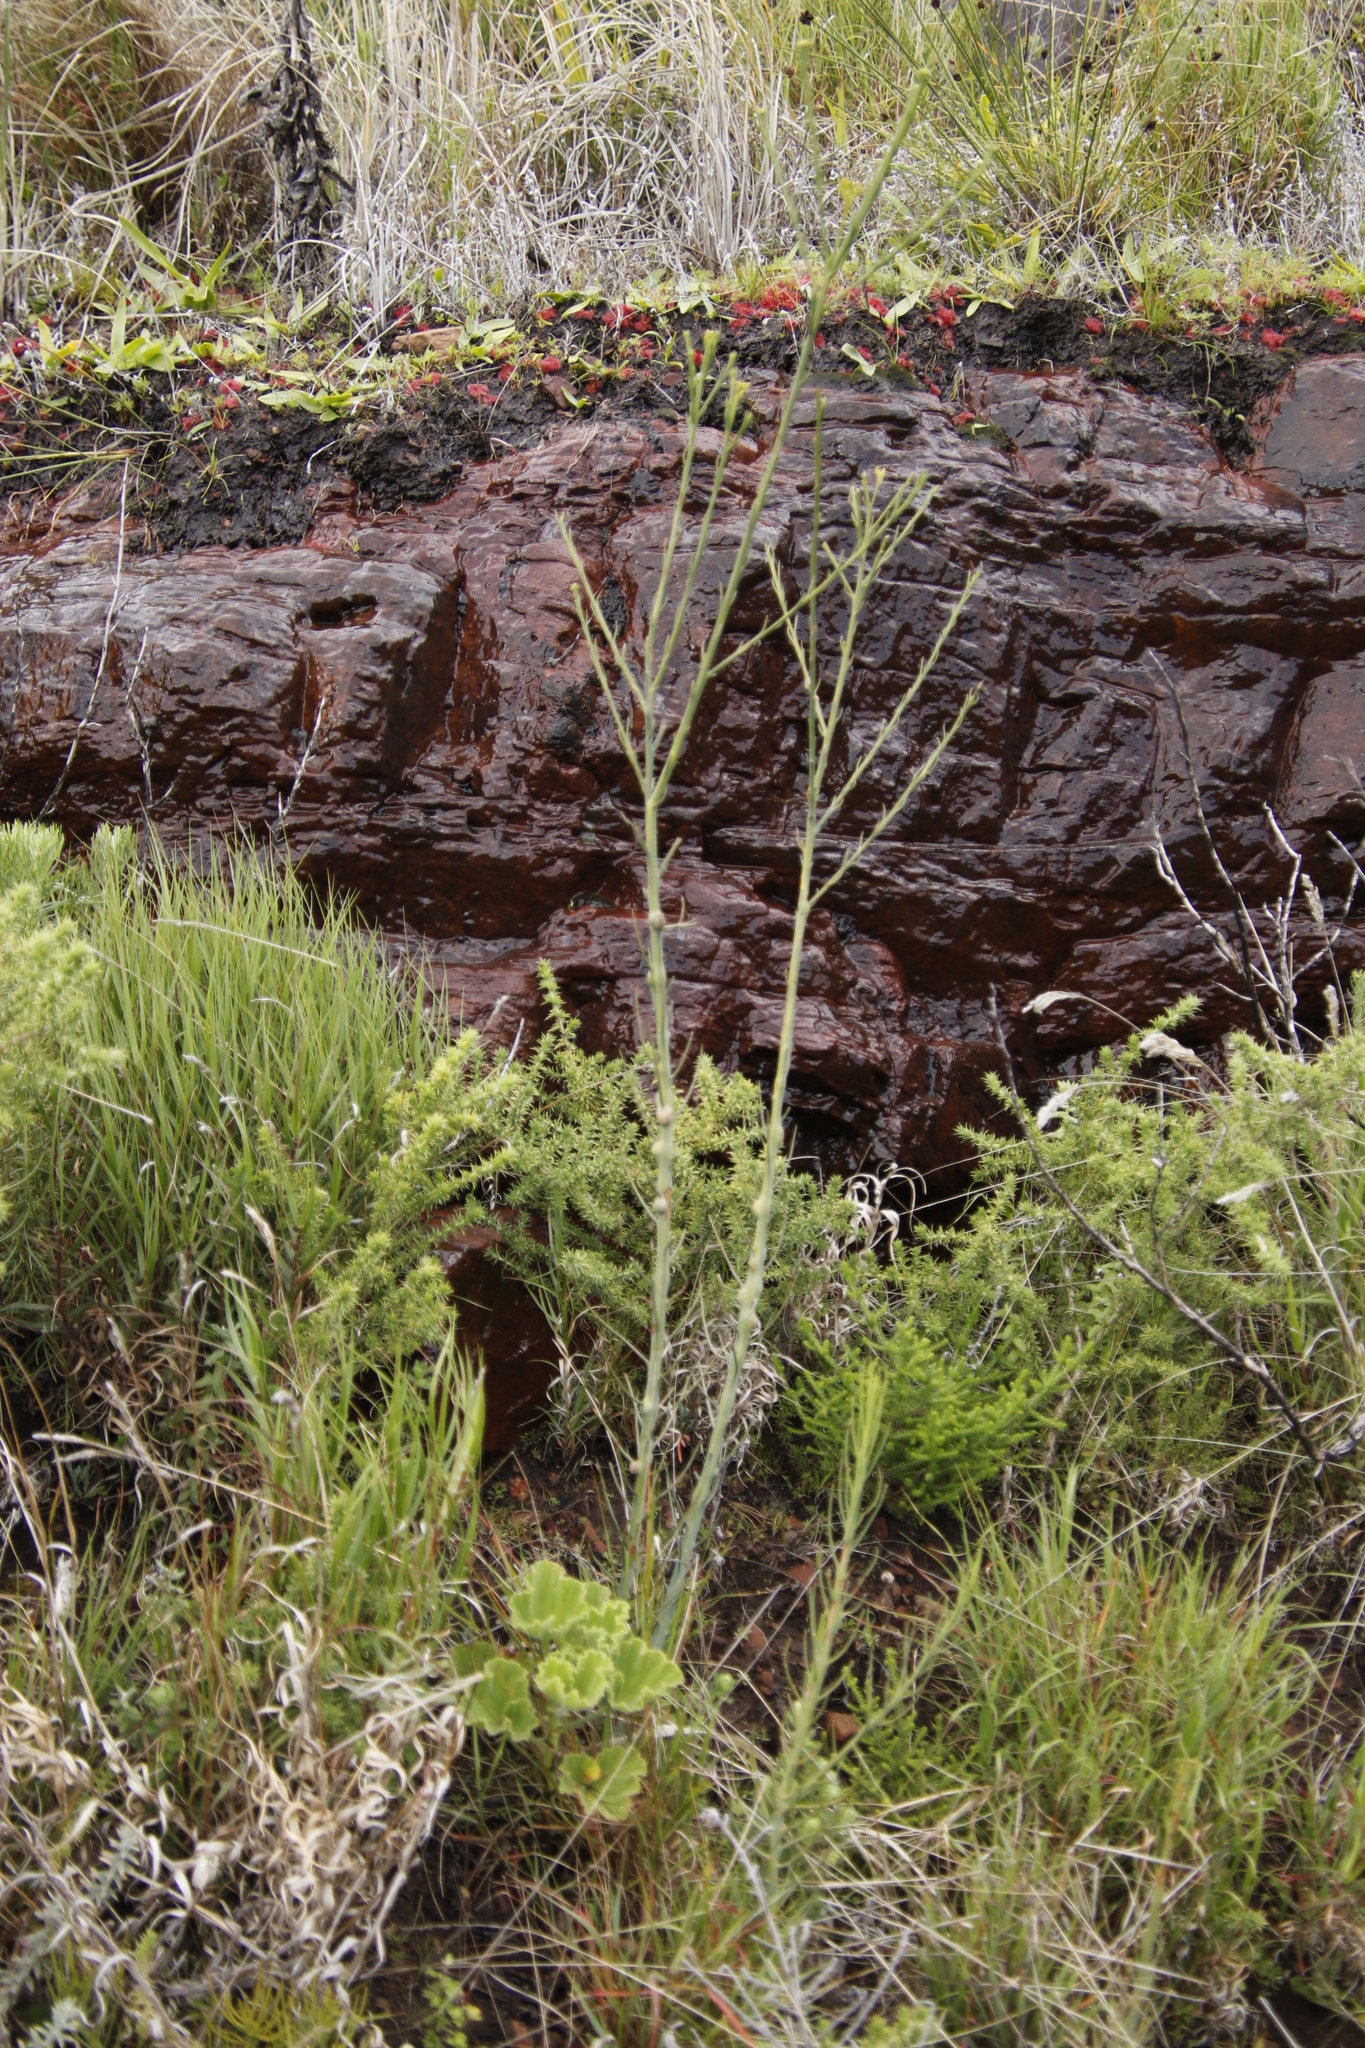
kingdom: Plantae
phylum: Tracheophyta
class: Magnoliopsida
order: Santalales
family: Thesiaceae
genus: Thesium
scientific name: Thesium strictum
